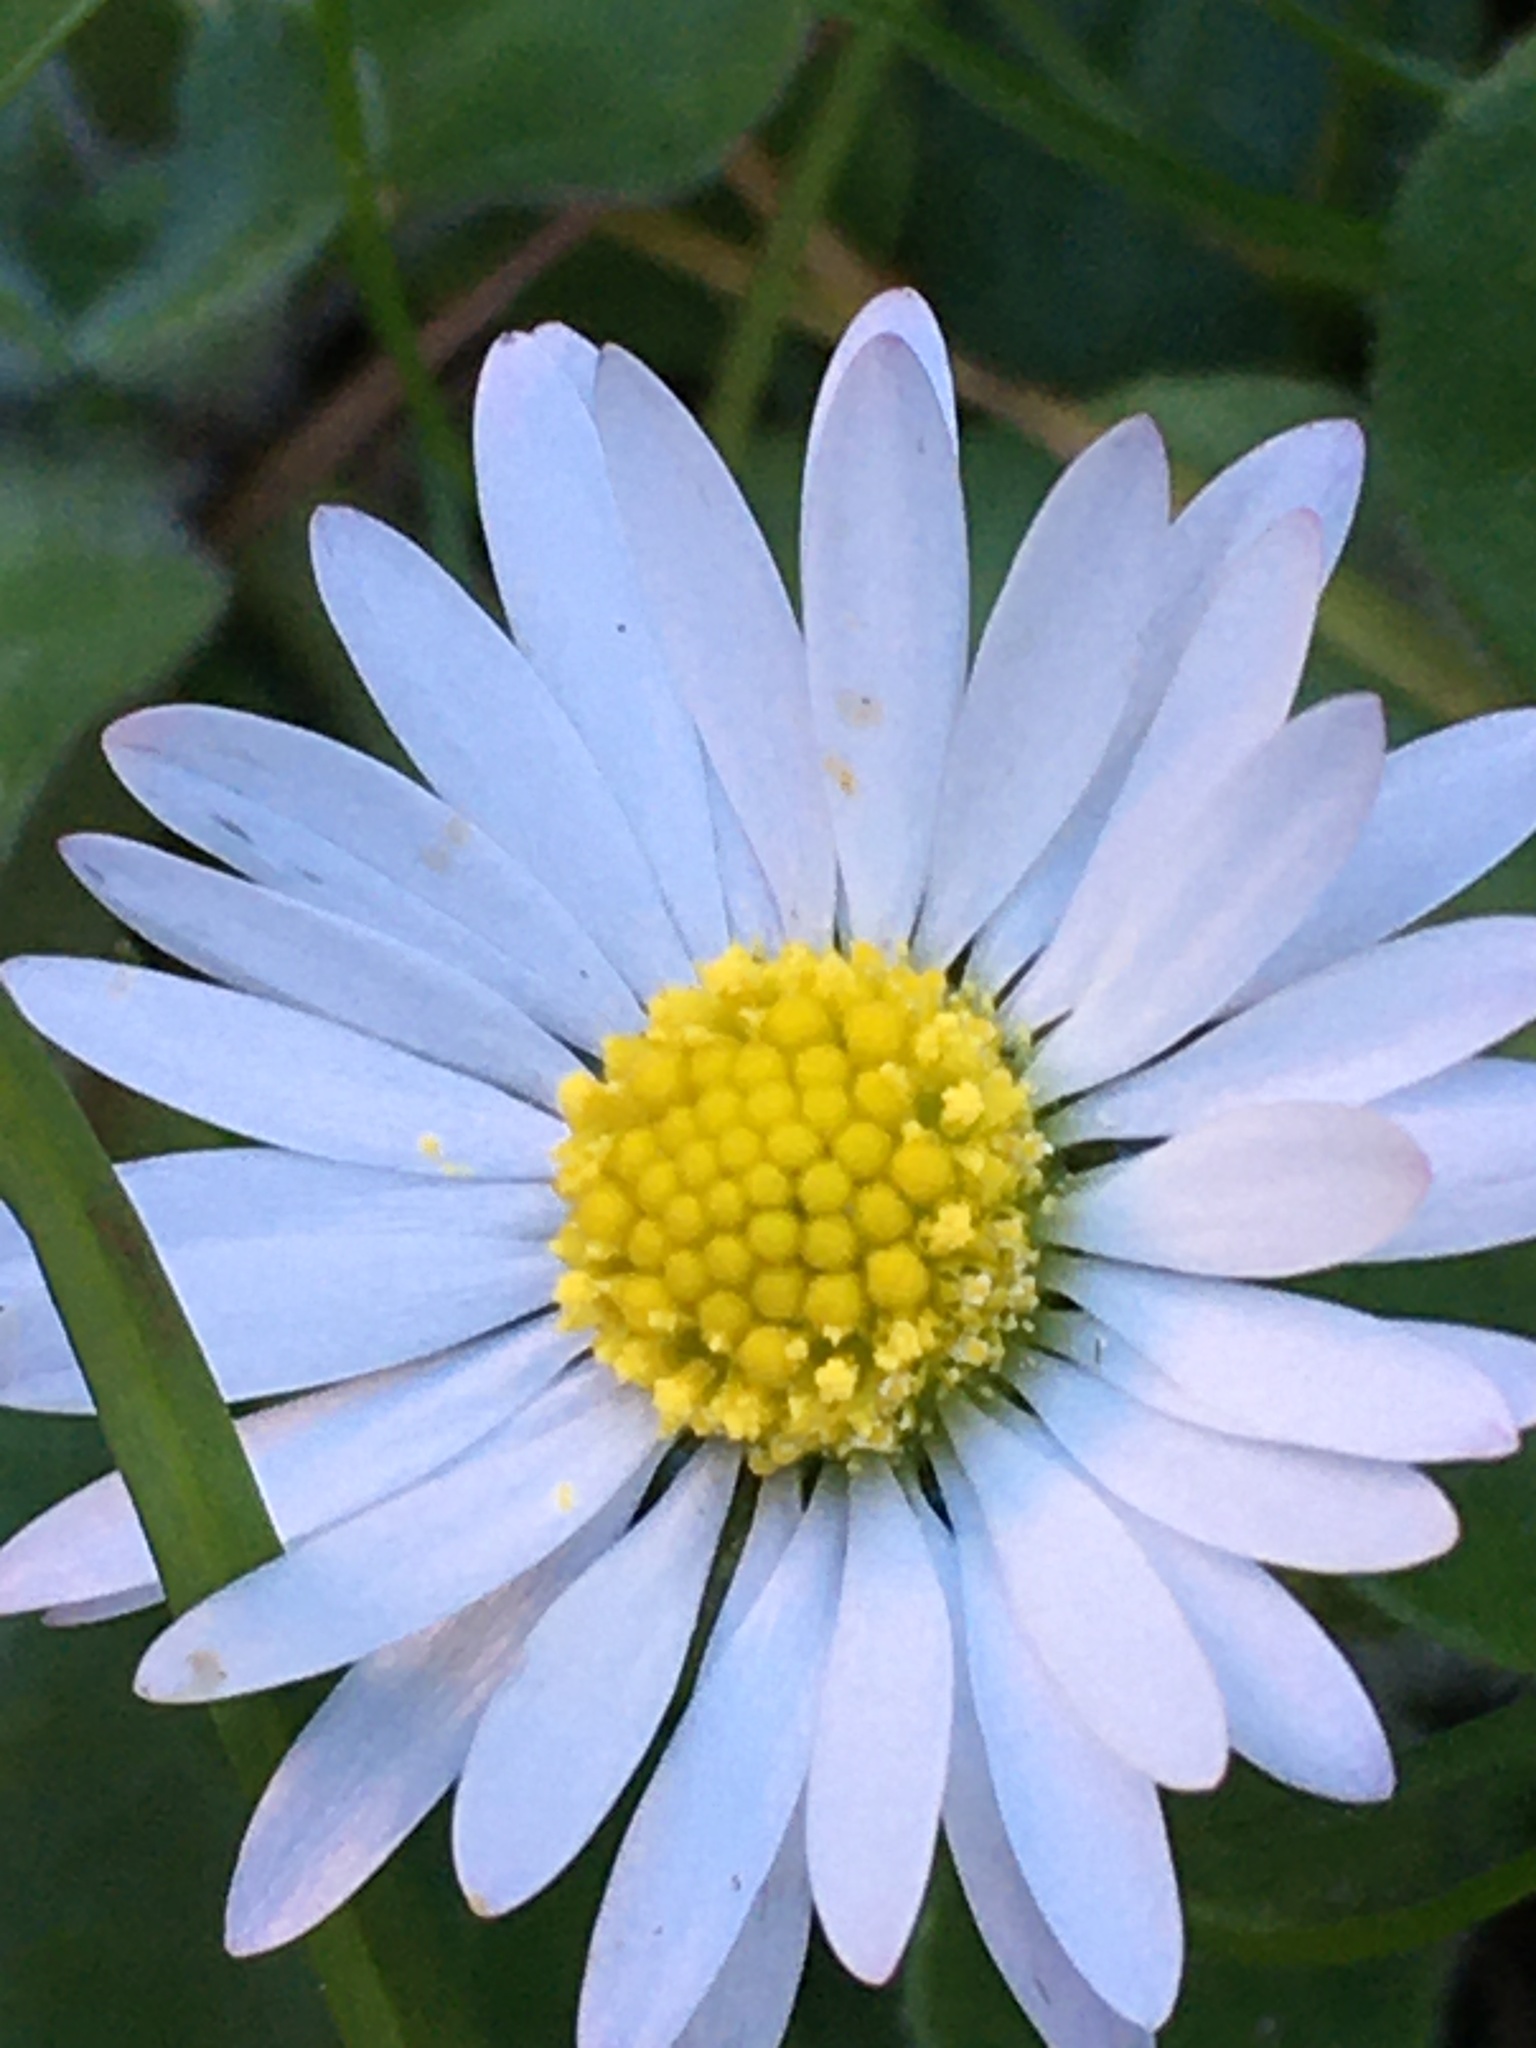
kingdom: Plantae
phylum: Tracheophyta
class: Magnoliopsida
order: Asterales
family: Asteraceae
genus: Bellis
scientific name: Bellis perennis
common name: Lawndaisy
